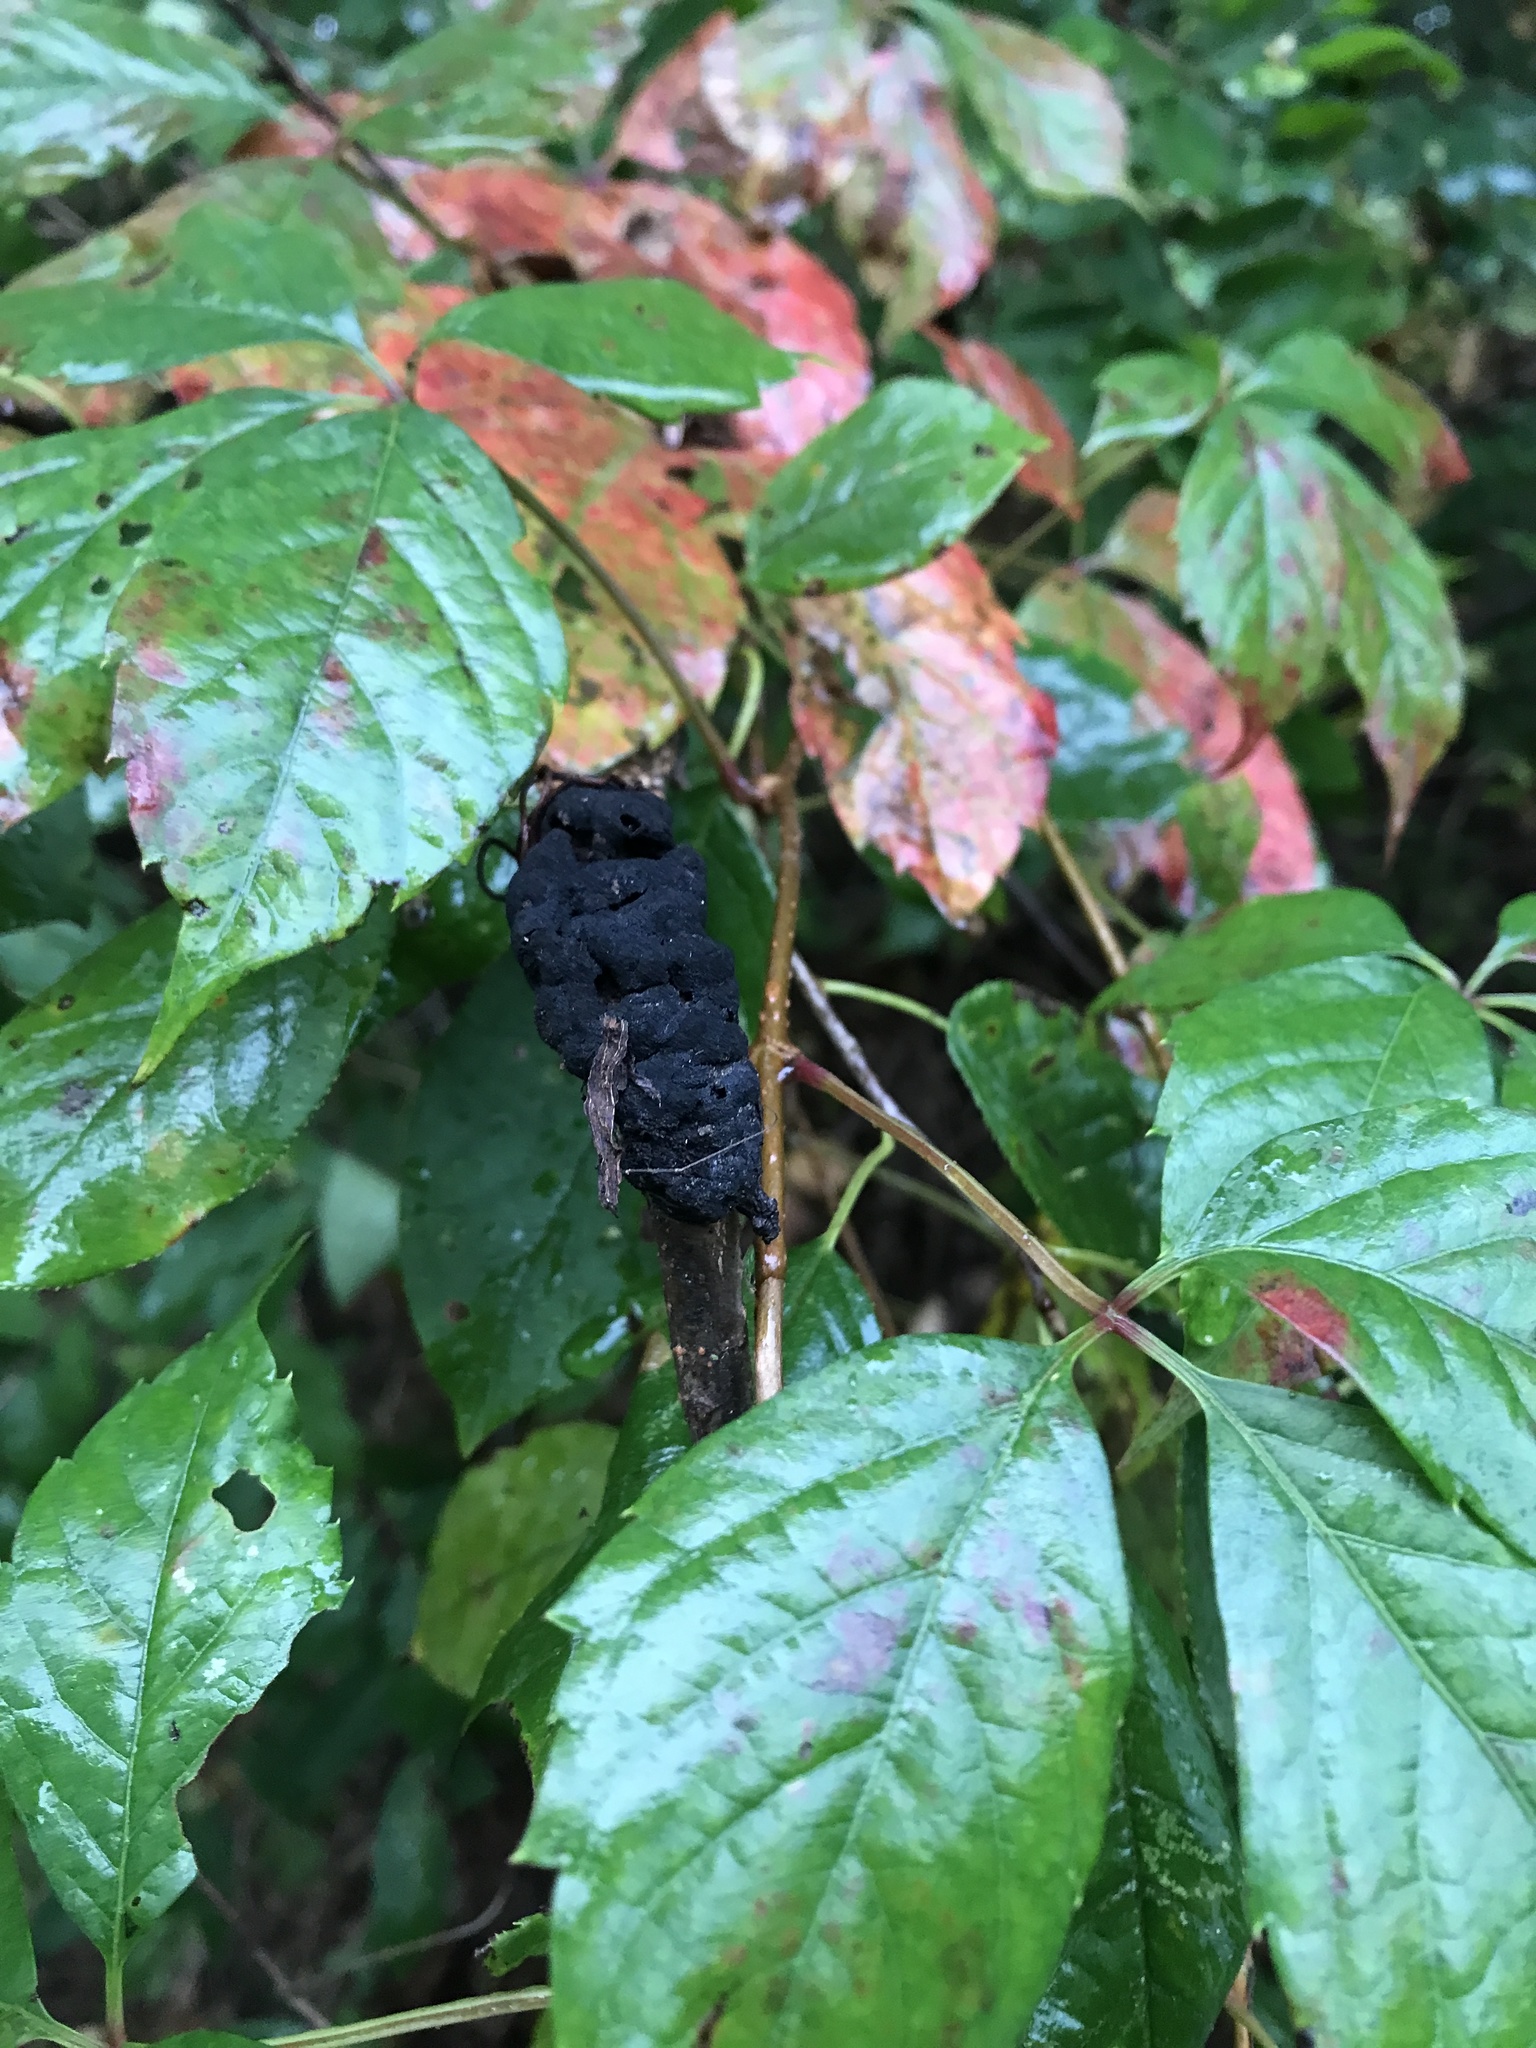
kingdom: Fungi
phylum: Ascomycota
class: Dothideomycetes
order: Venturiales
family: Venturiaceae
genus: Apiosporina
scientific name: Apiosporina morbosa
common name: Black knot
